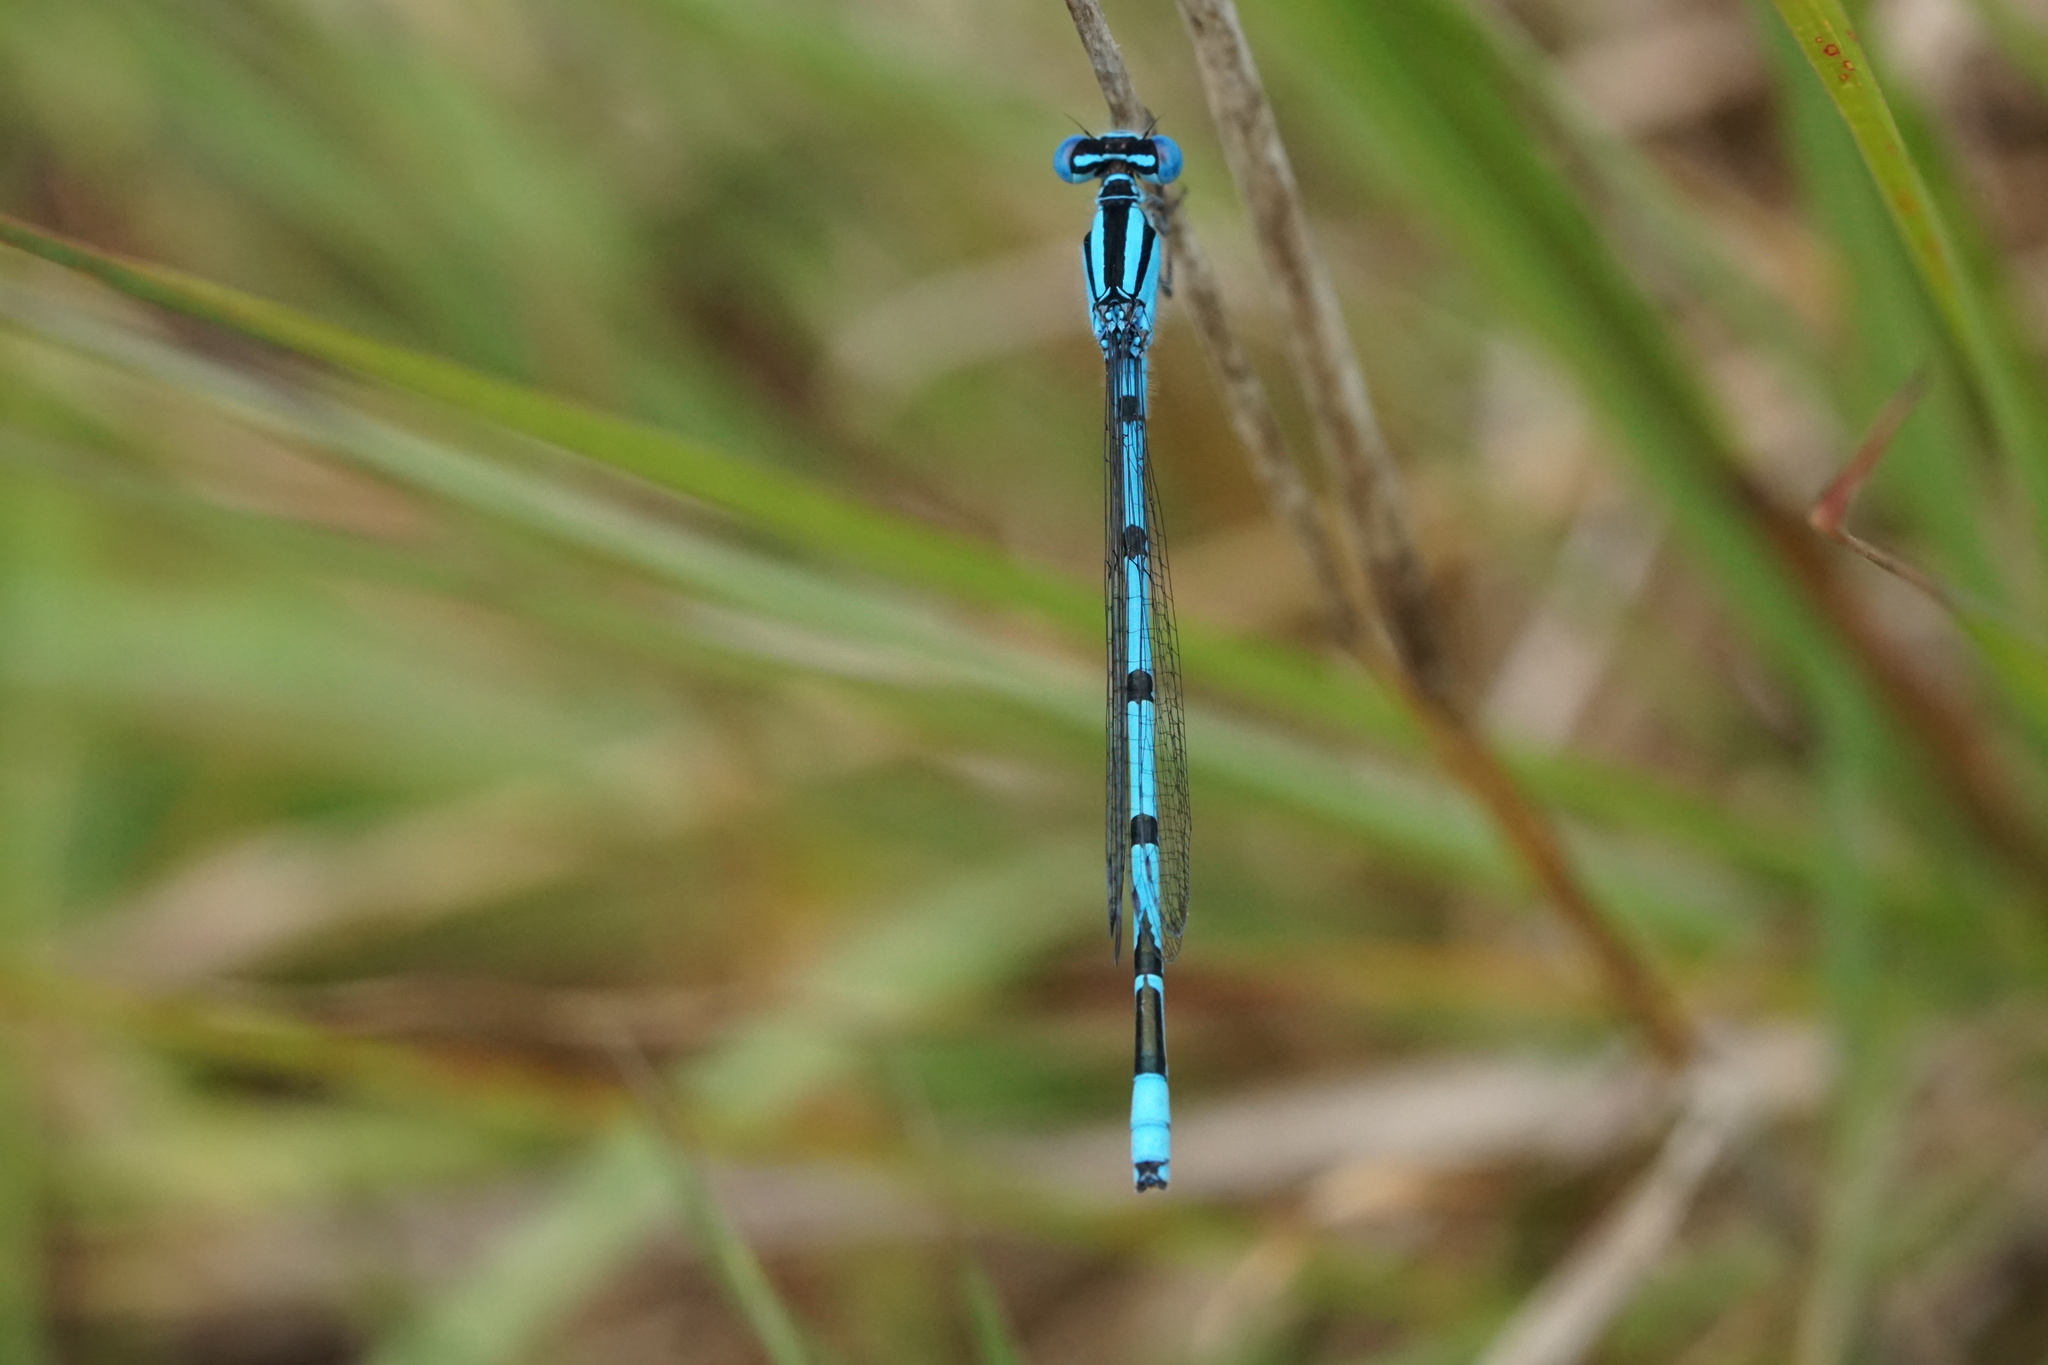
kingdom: Animalia
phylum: Arthropoda
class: Insecta
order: Odonata
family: Coenagrionidae
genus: Enallagma
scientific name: Enallagma doubledayi
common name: Atlantic bluet
